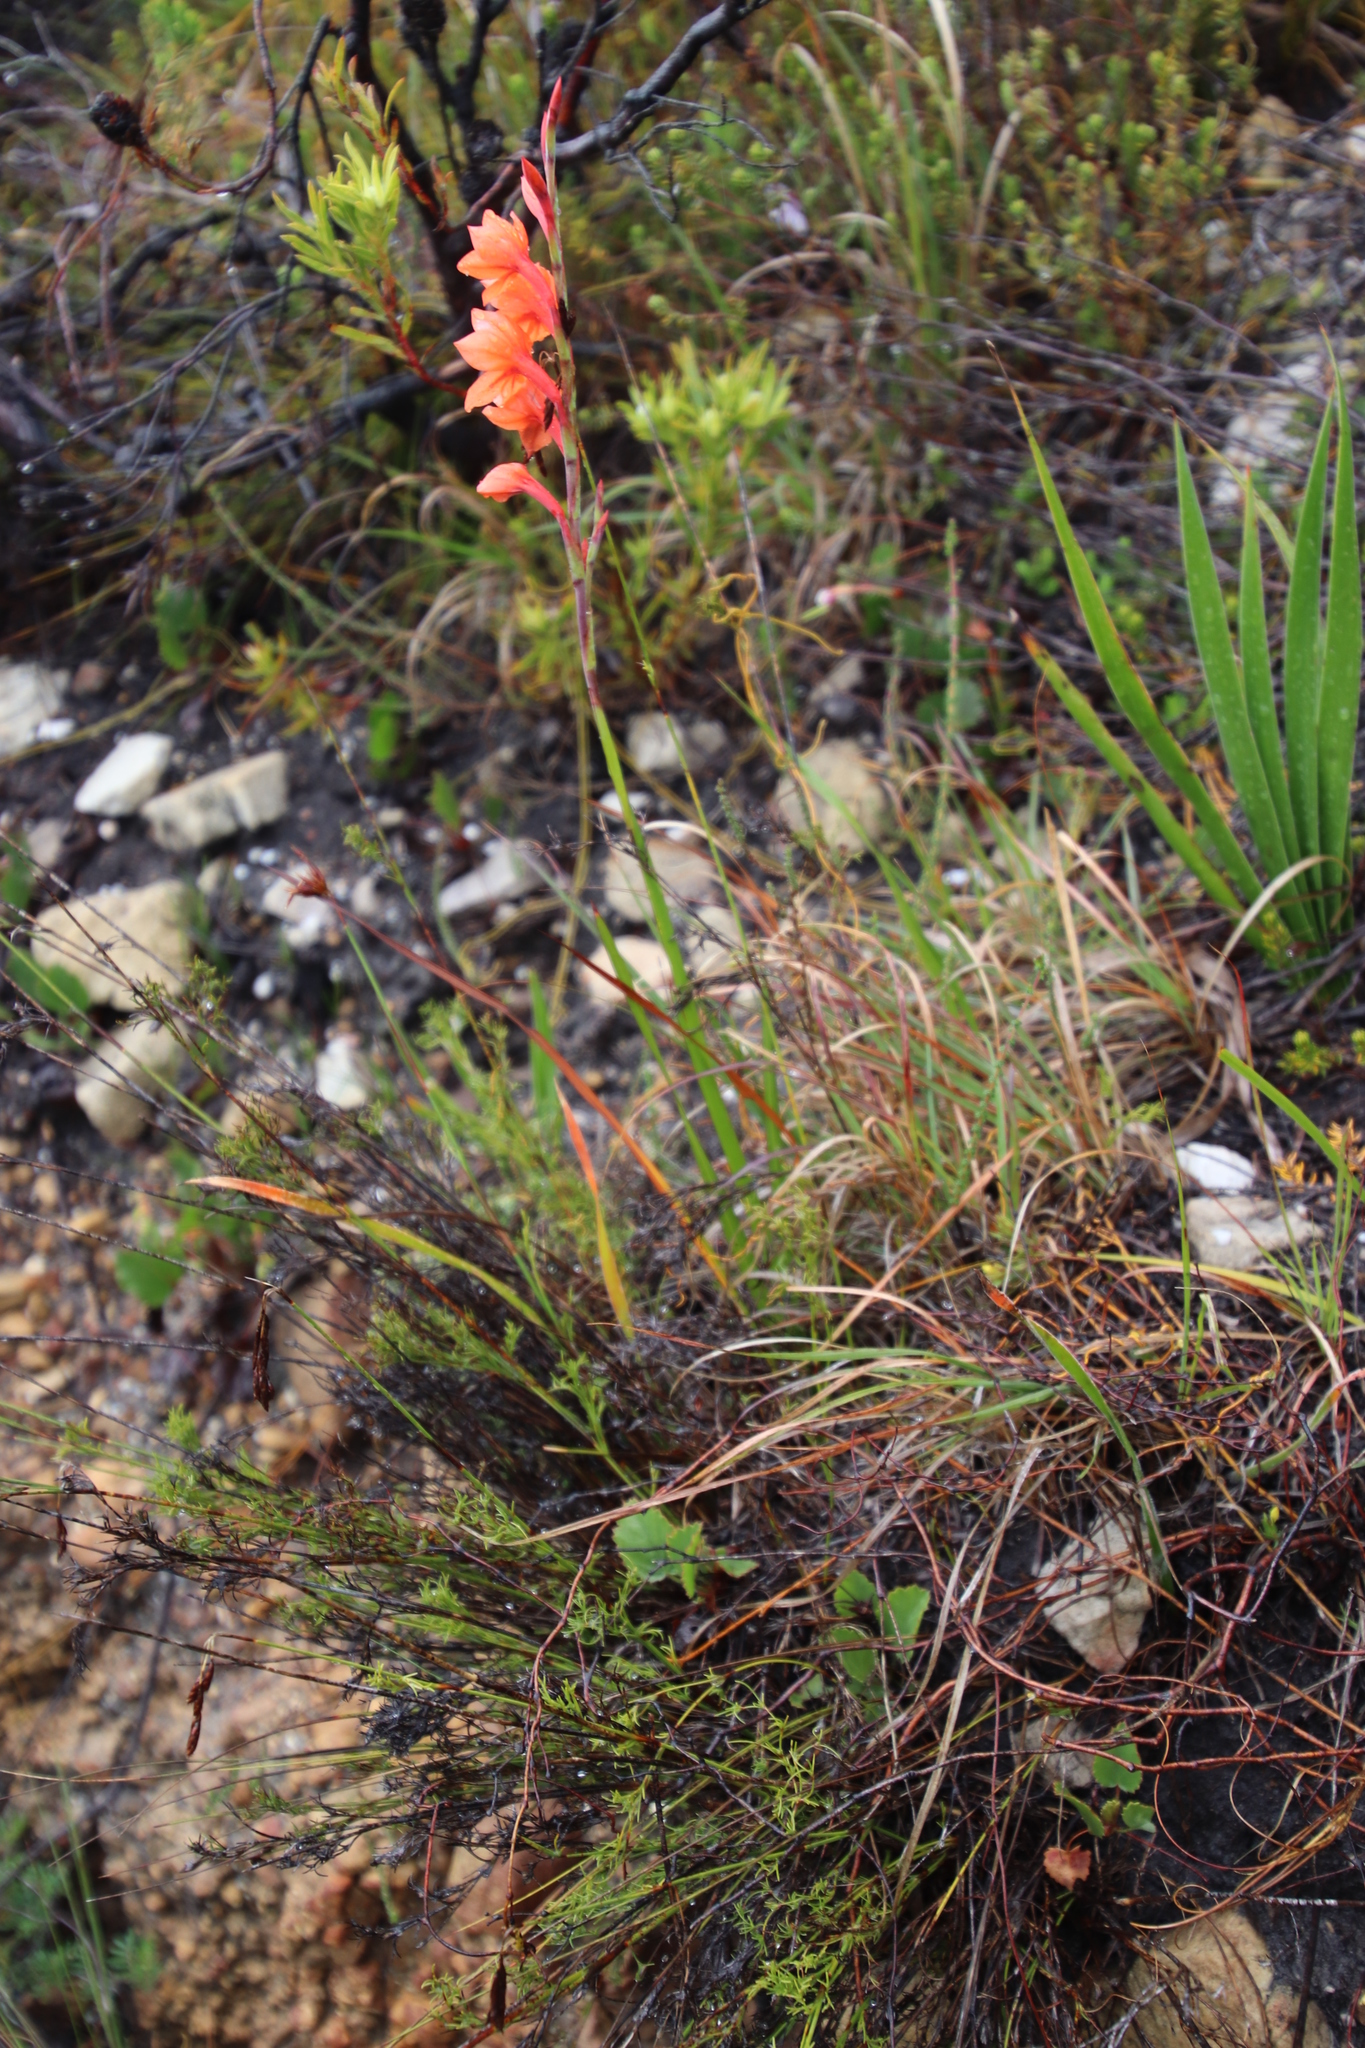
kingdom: Plantae
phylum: Tracheophyta
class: Liliopsida
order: Asparagales
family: Iridaceae
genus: Watsonia
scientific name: Watsonia stenosiphon
